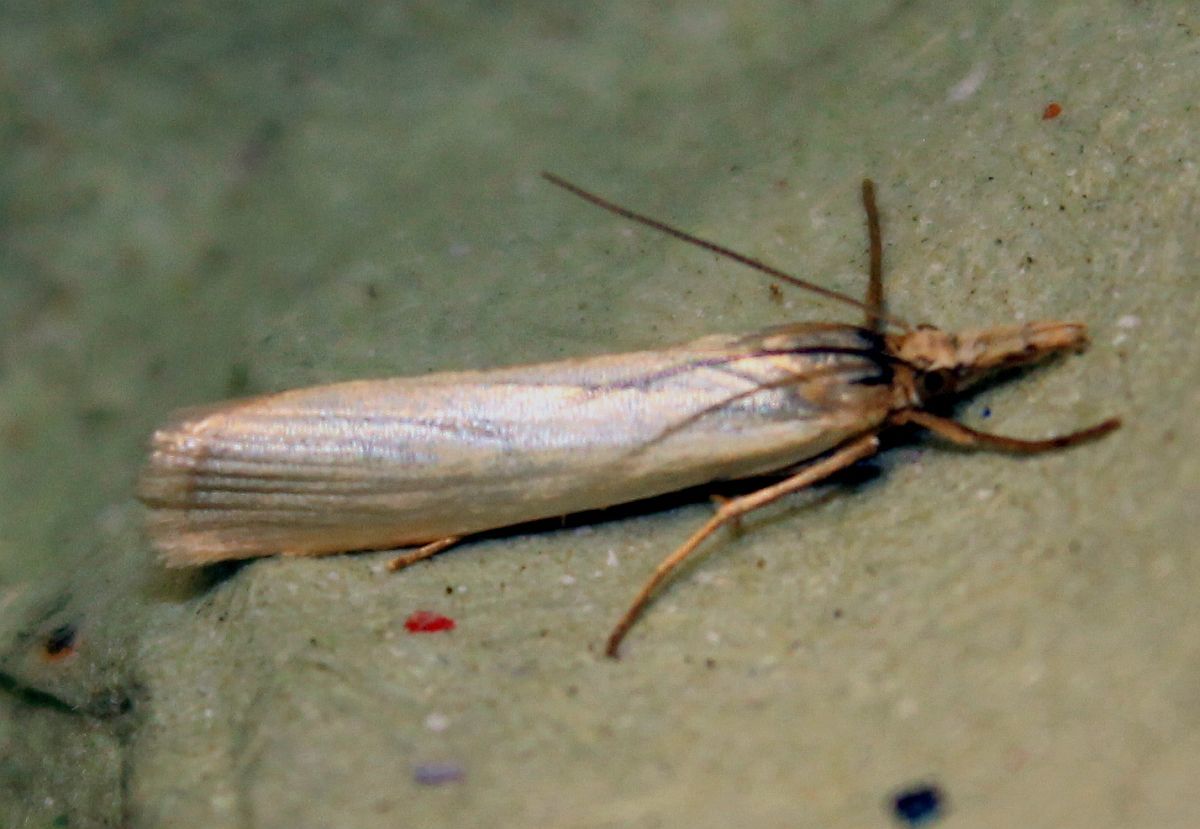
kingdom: Animalia
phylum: Arthropoda
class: Insecta
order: Lepidoptera
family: Crambidae
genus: Crambus
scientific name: Crambus perlellus
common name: Yellow satin veneer
